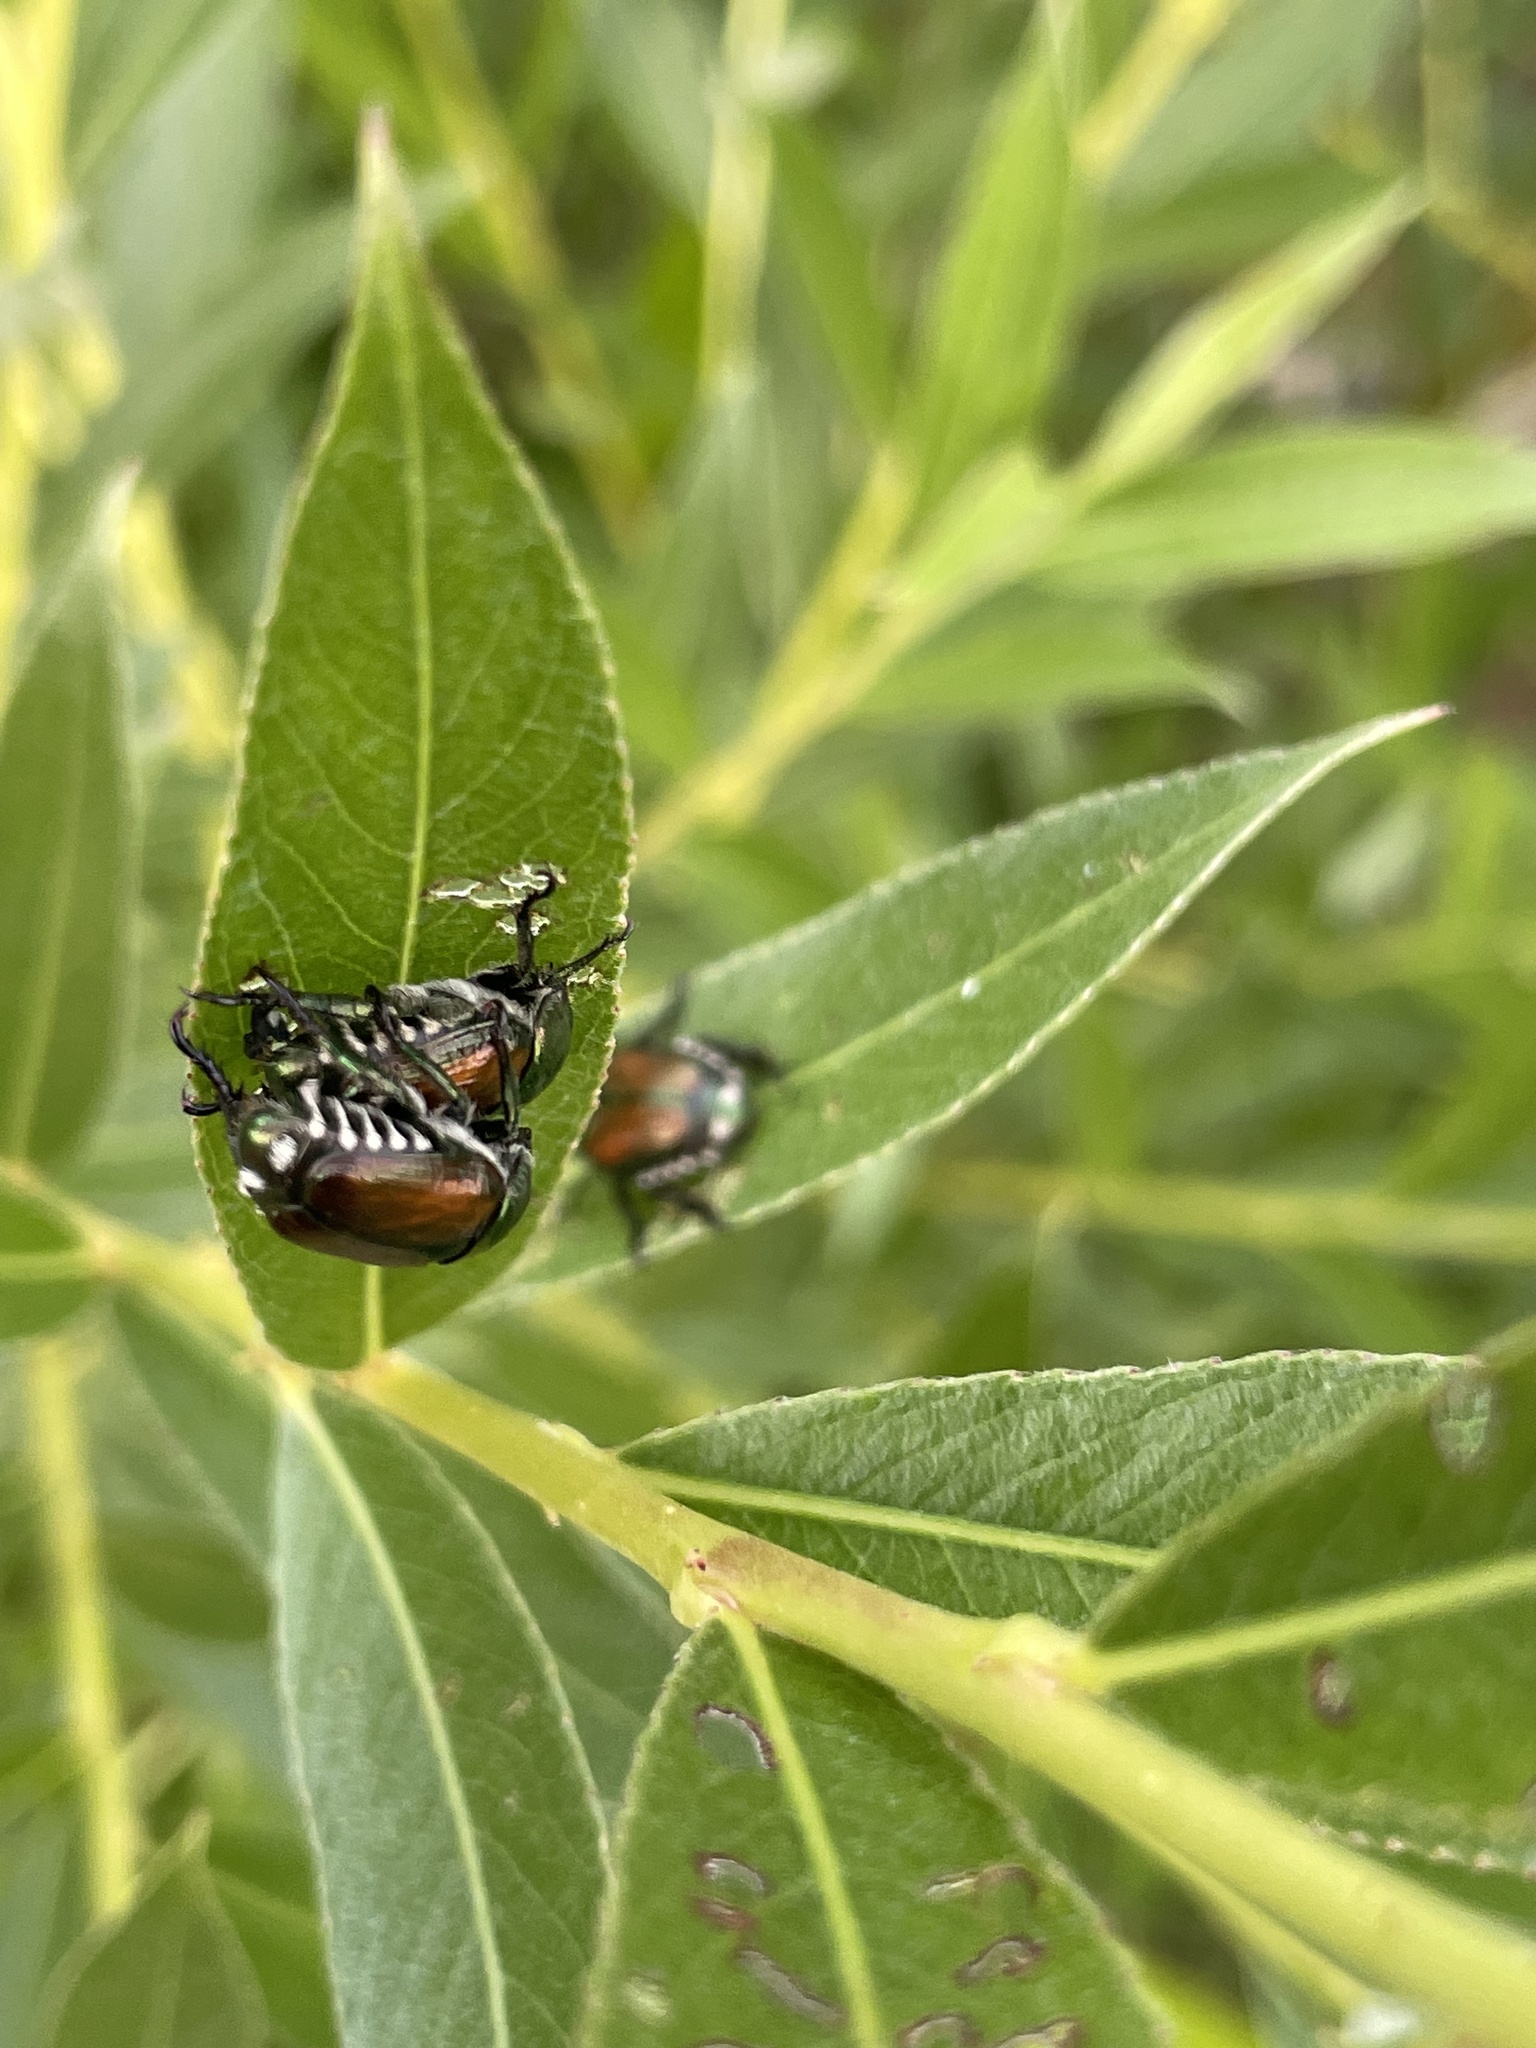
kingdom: Animalia
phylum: Arthropoda
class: Insecta
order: Coleoptera
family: Scarabaeidae
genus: Popillia
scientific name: Popillia japonica
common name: Japanese beetle
